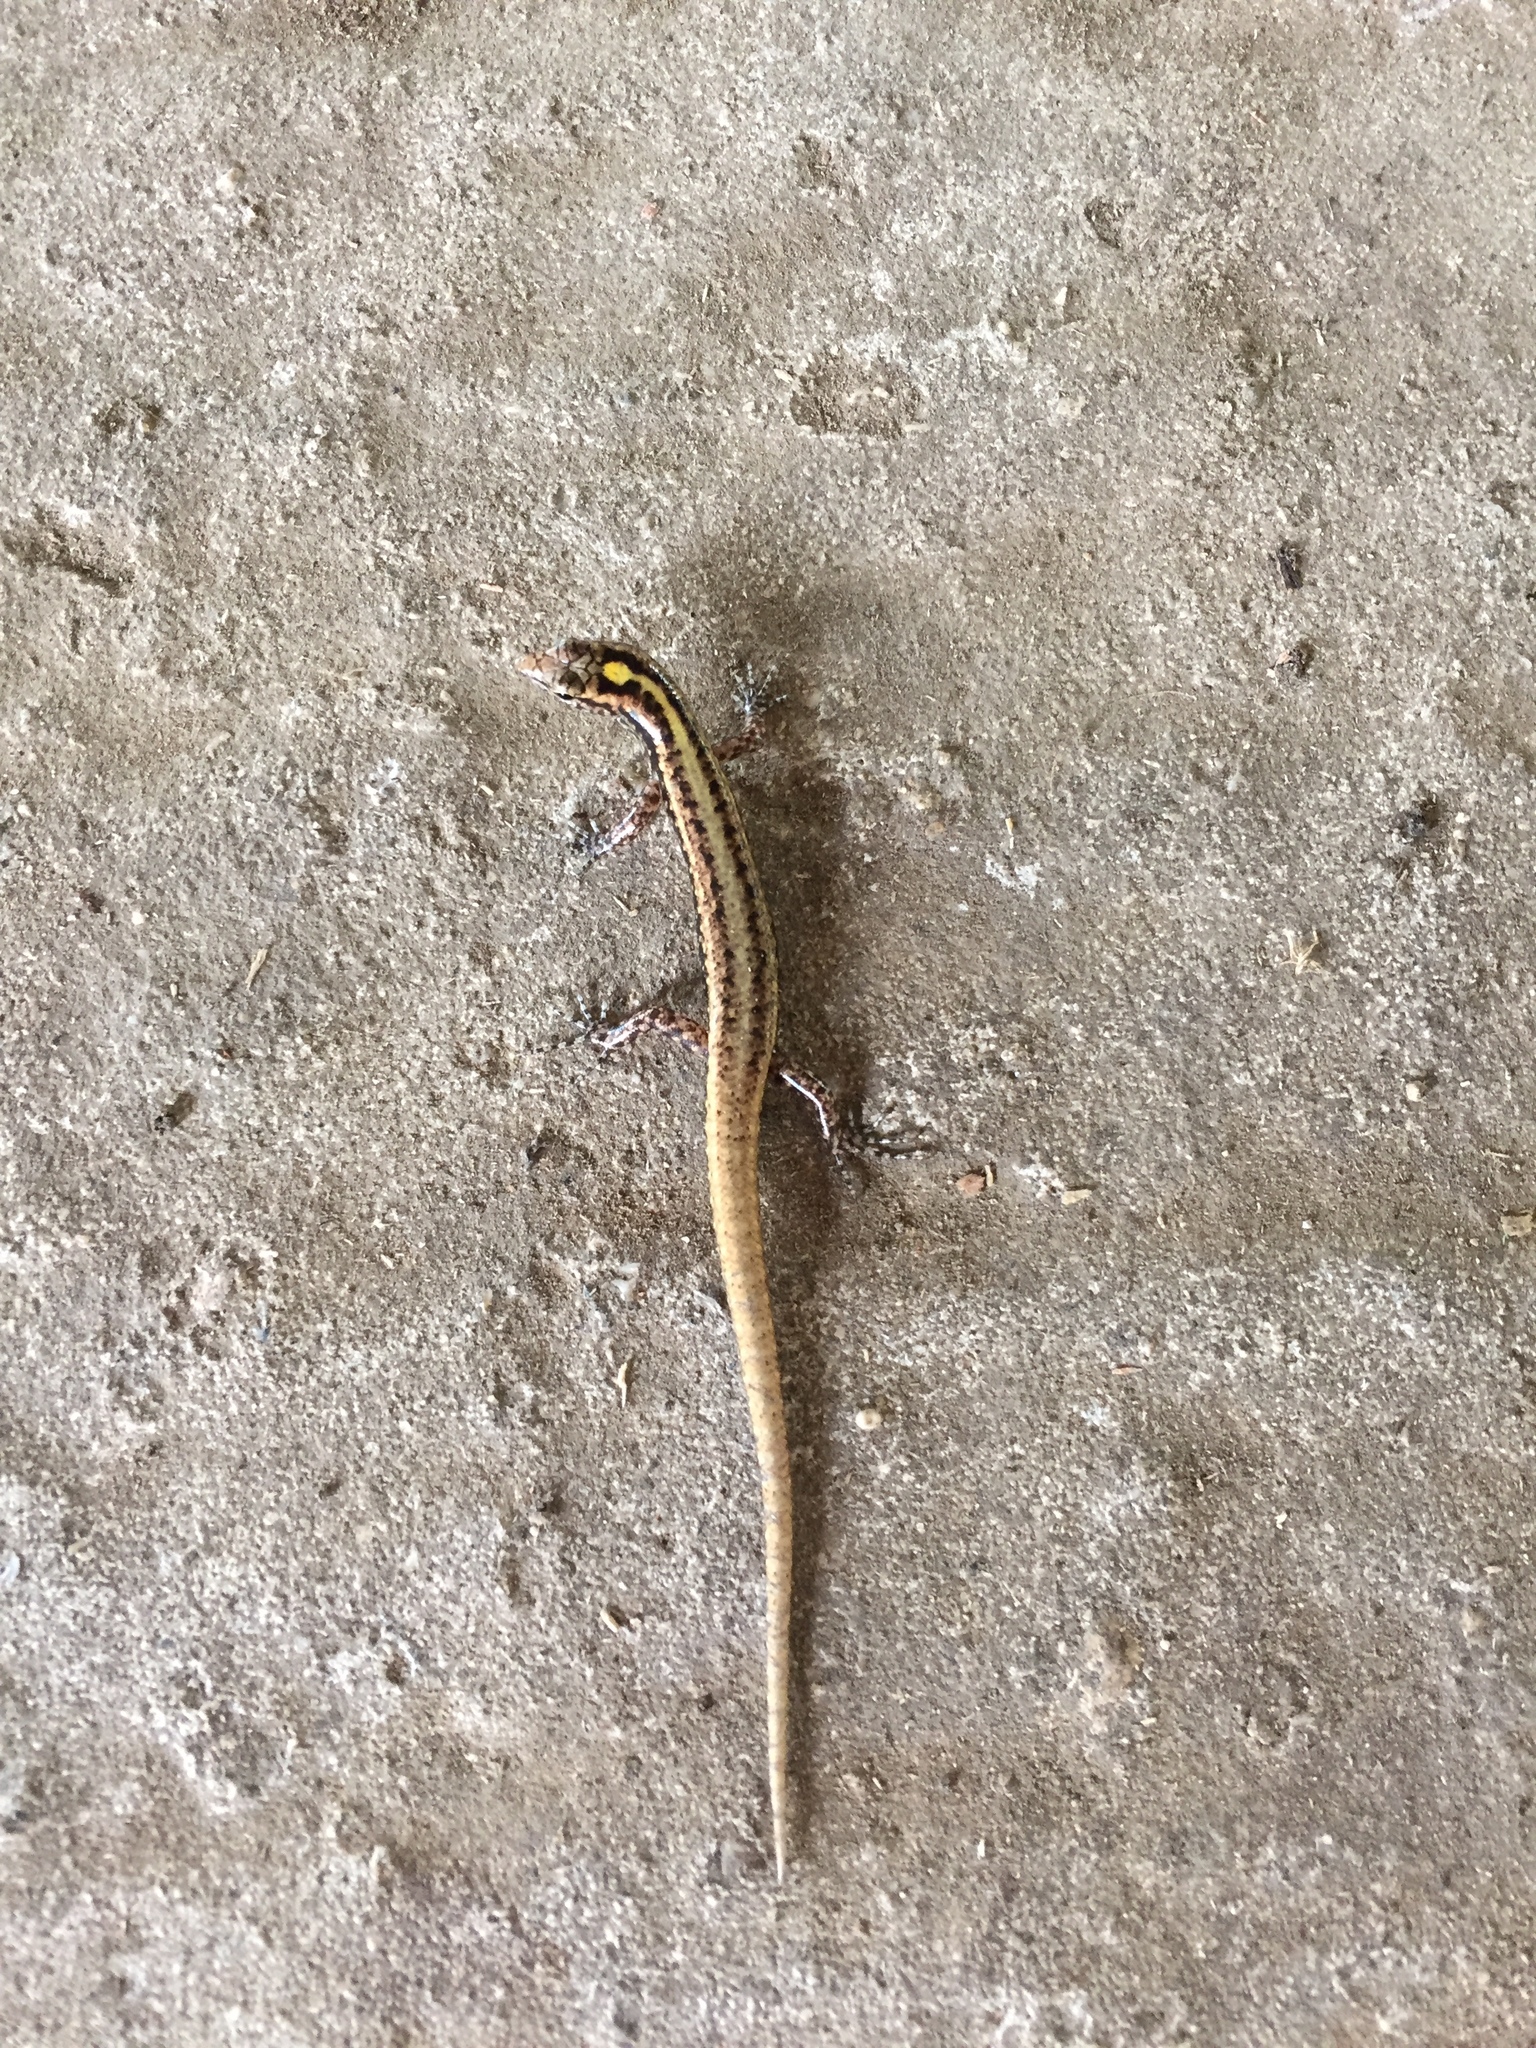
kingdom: Animalia
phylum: Chordata
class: Squamata
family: Scincidae
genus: Ornithuroscincus
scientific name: Ornithuroscincus noctua
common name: Moth skink
